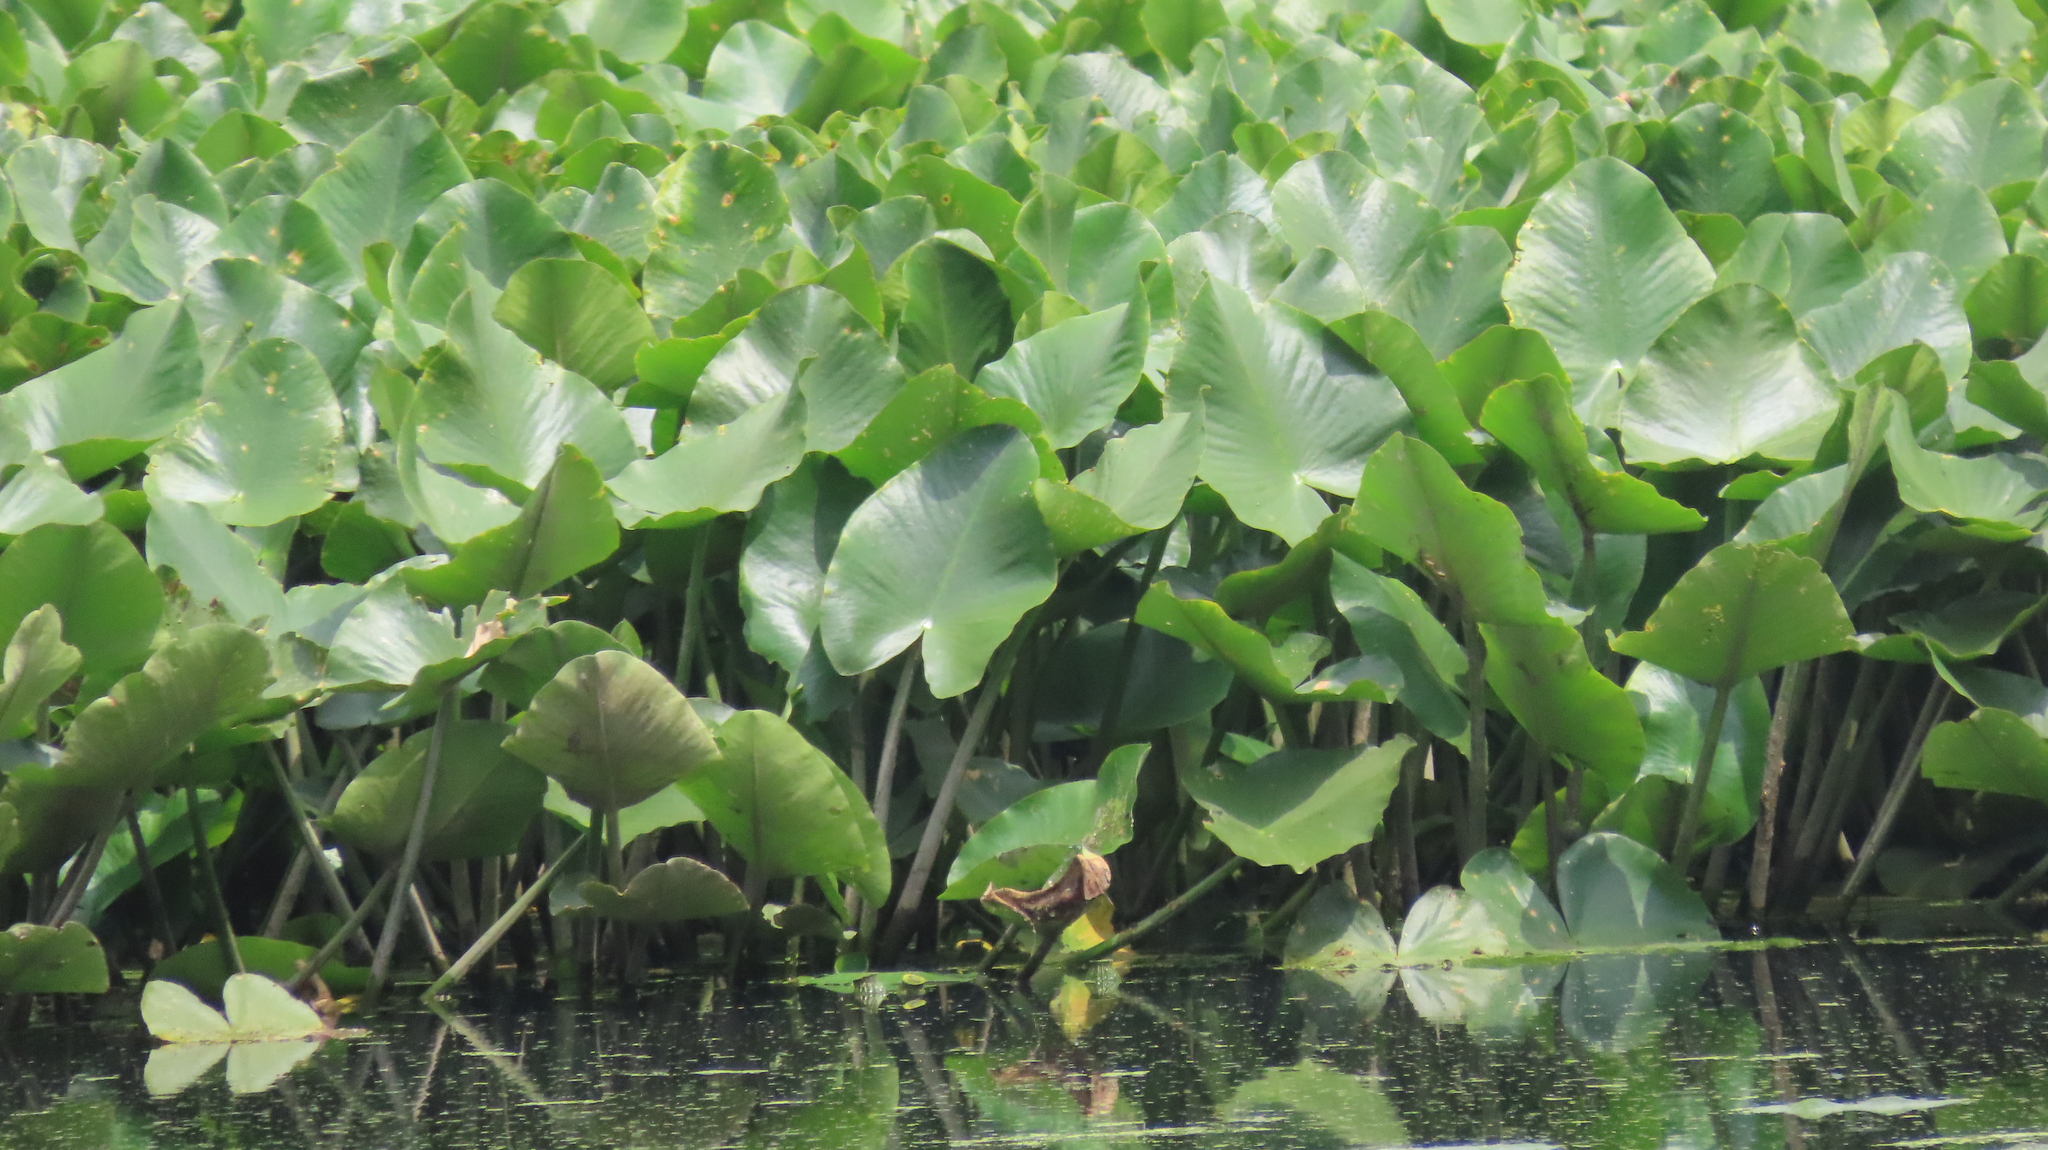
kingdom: Plantae
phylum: Tracheophyta
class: Magnoliopsida
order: Nymphaeales
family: Nymphaeaceae
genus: Nuphar
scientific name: Nuphar advena
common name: Spatter-dock
